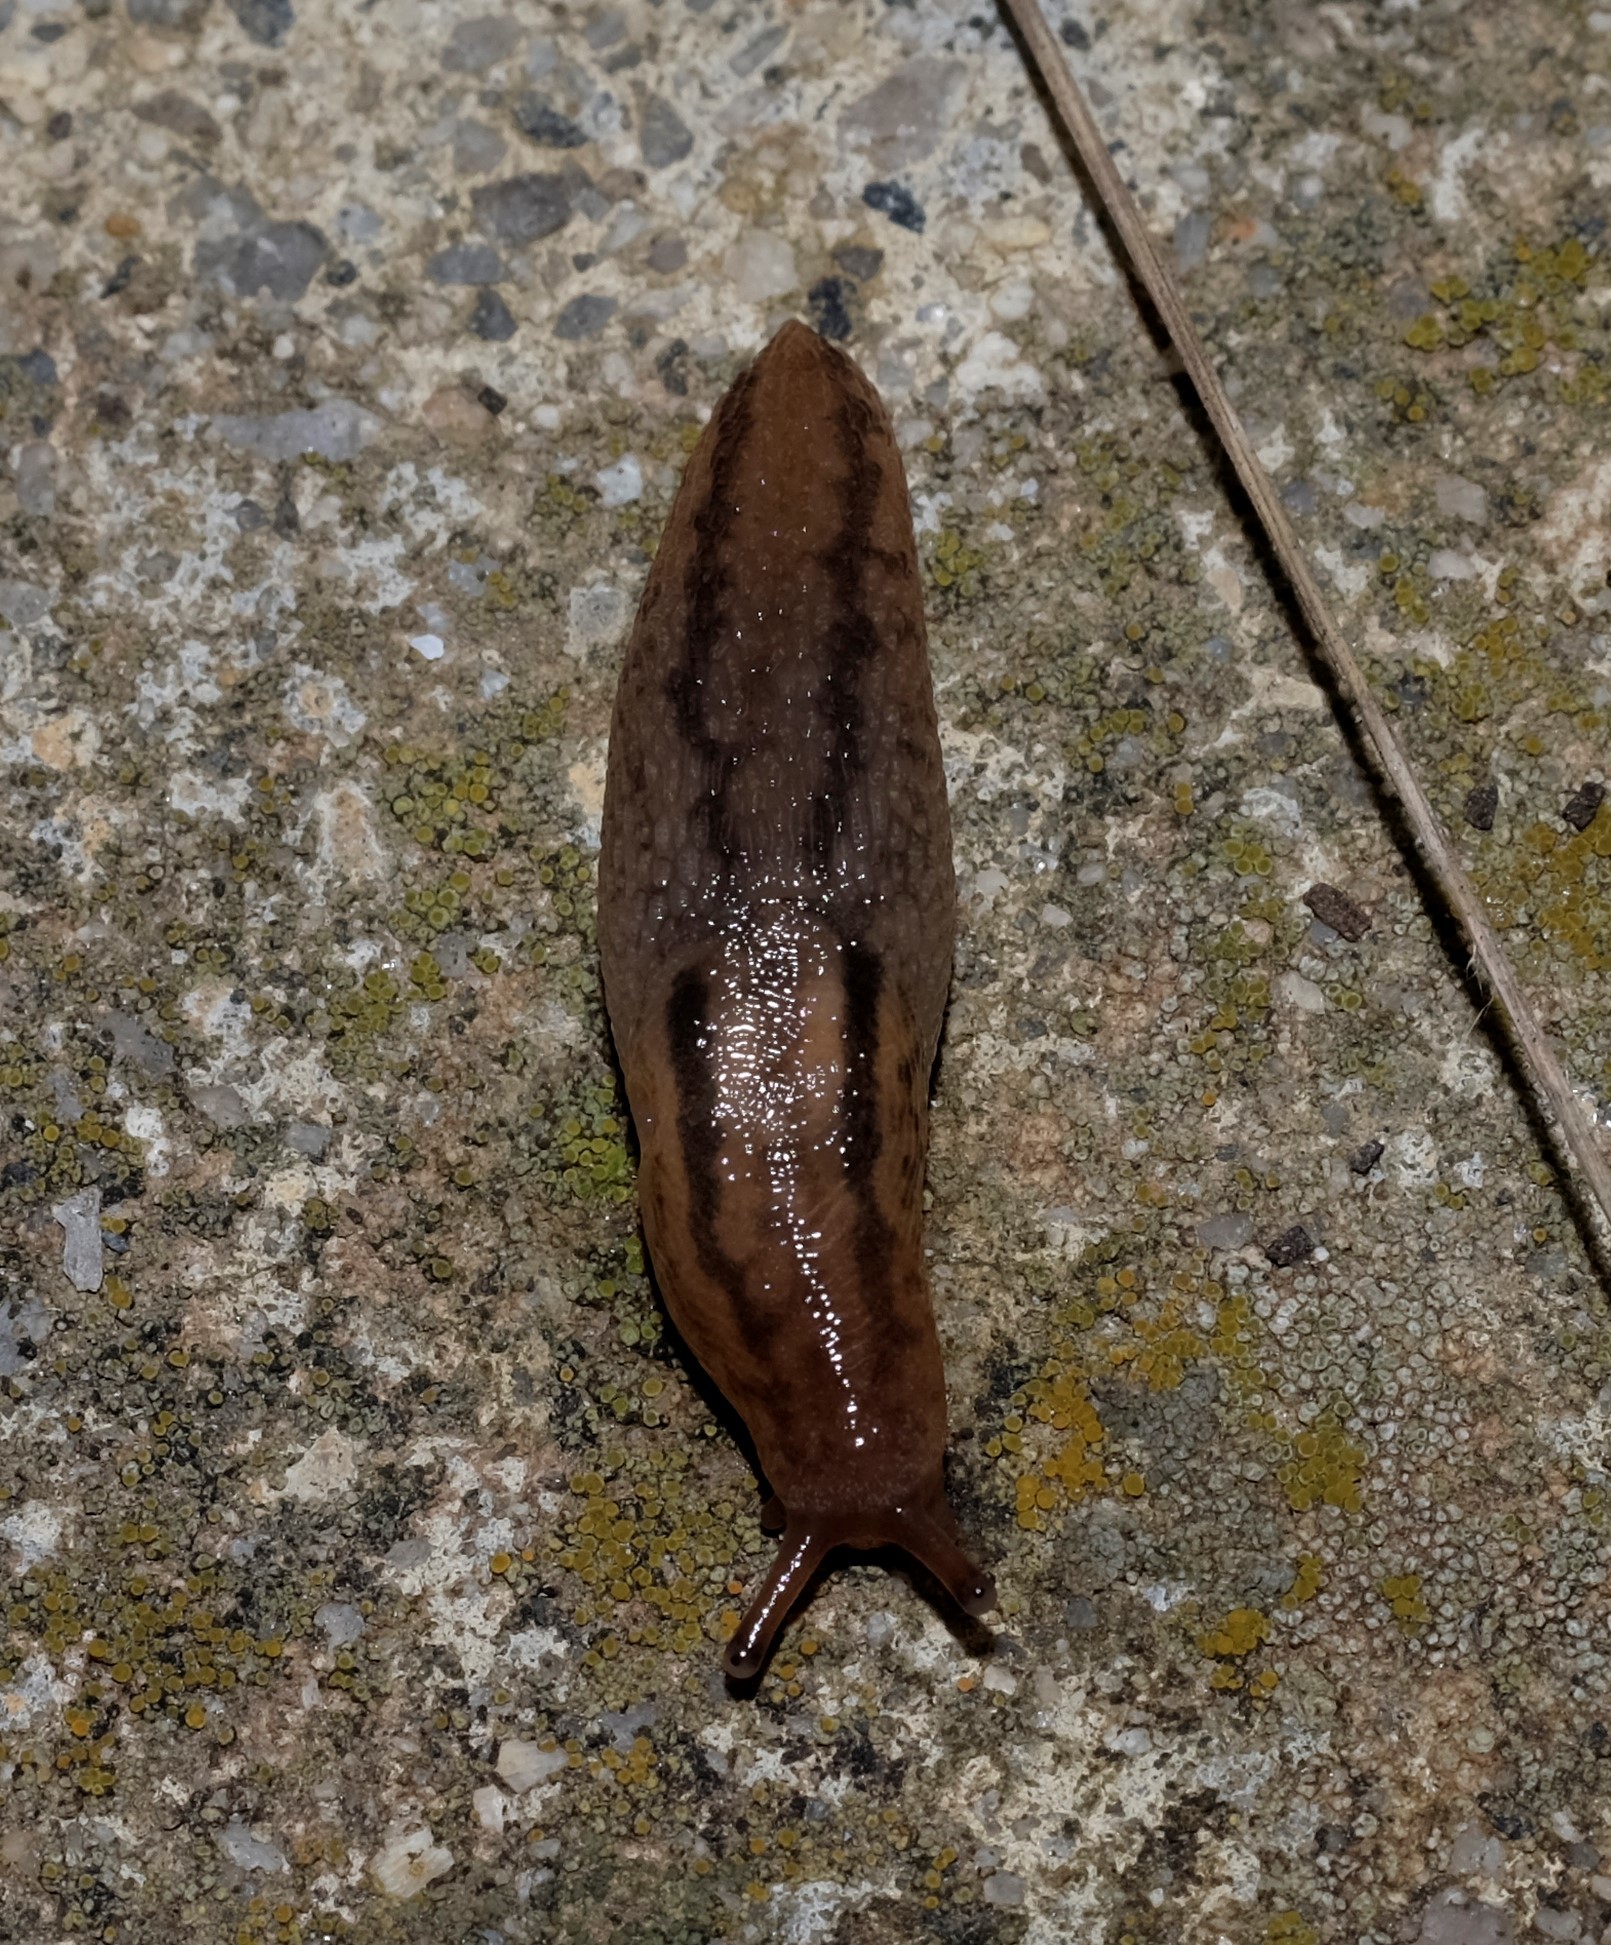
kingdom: Animalia
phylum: Mollusca
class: Gastropoda
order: Stylommatophora
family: Limacidae
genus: Ambigolimax
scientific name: Ambigolimax
